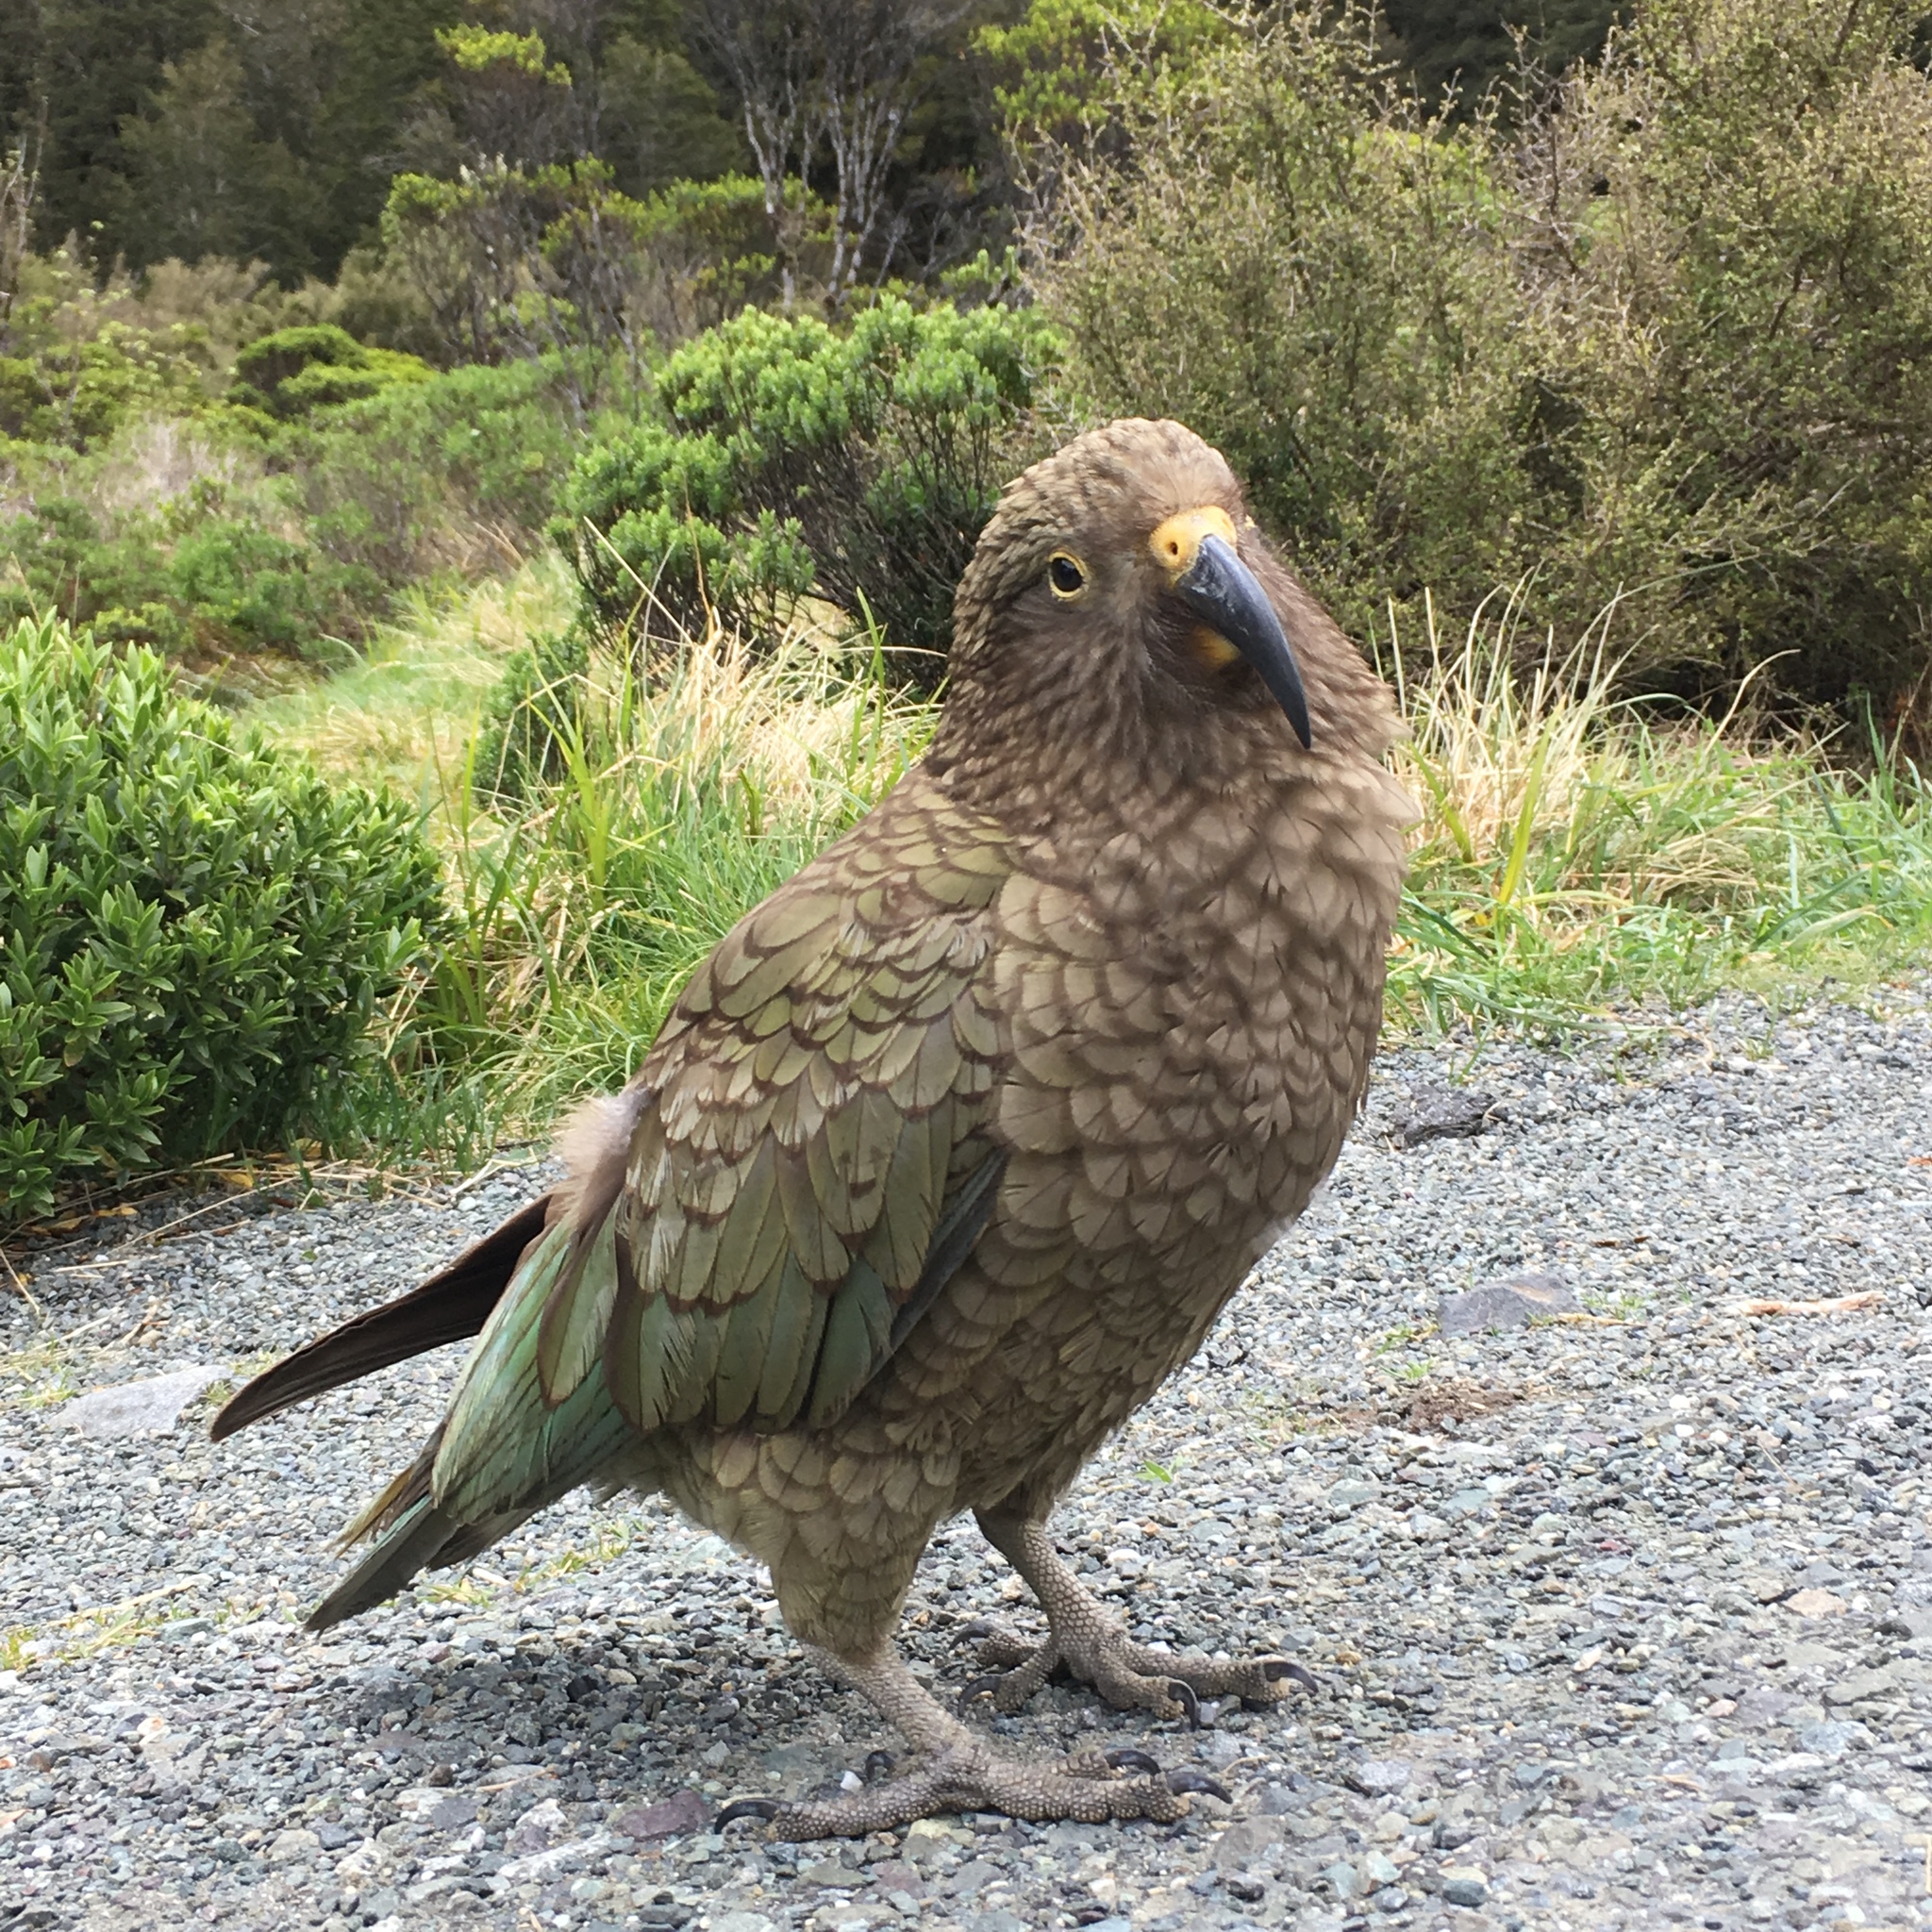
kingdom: Animalia
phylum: Chordata
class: Aves
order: Psittaciformes
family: Psittacidae
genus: Nestor
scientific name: Nestor notabilis
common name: Kea
